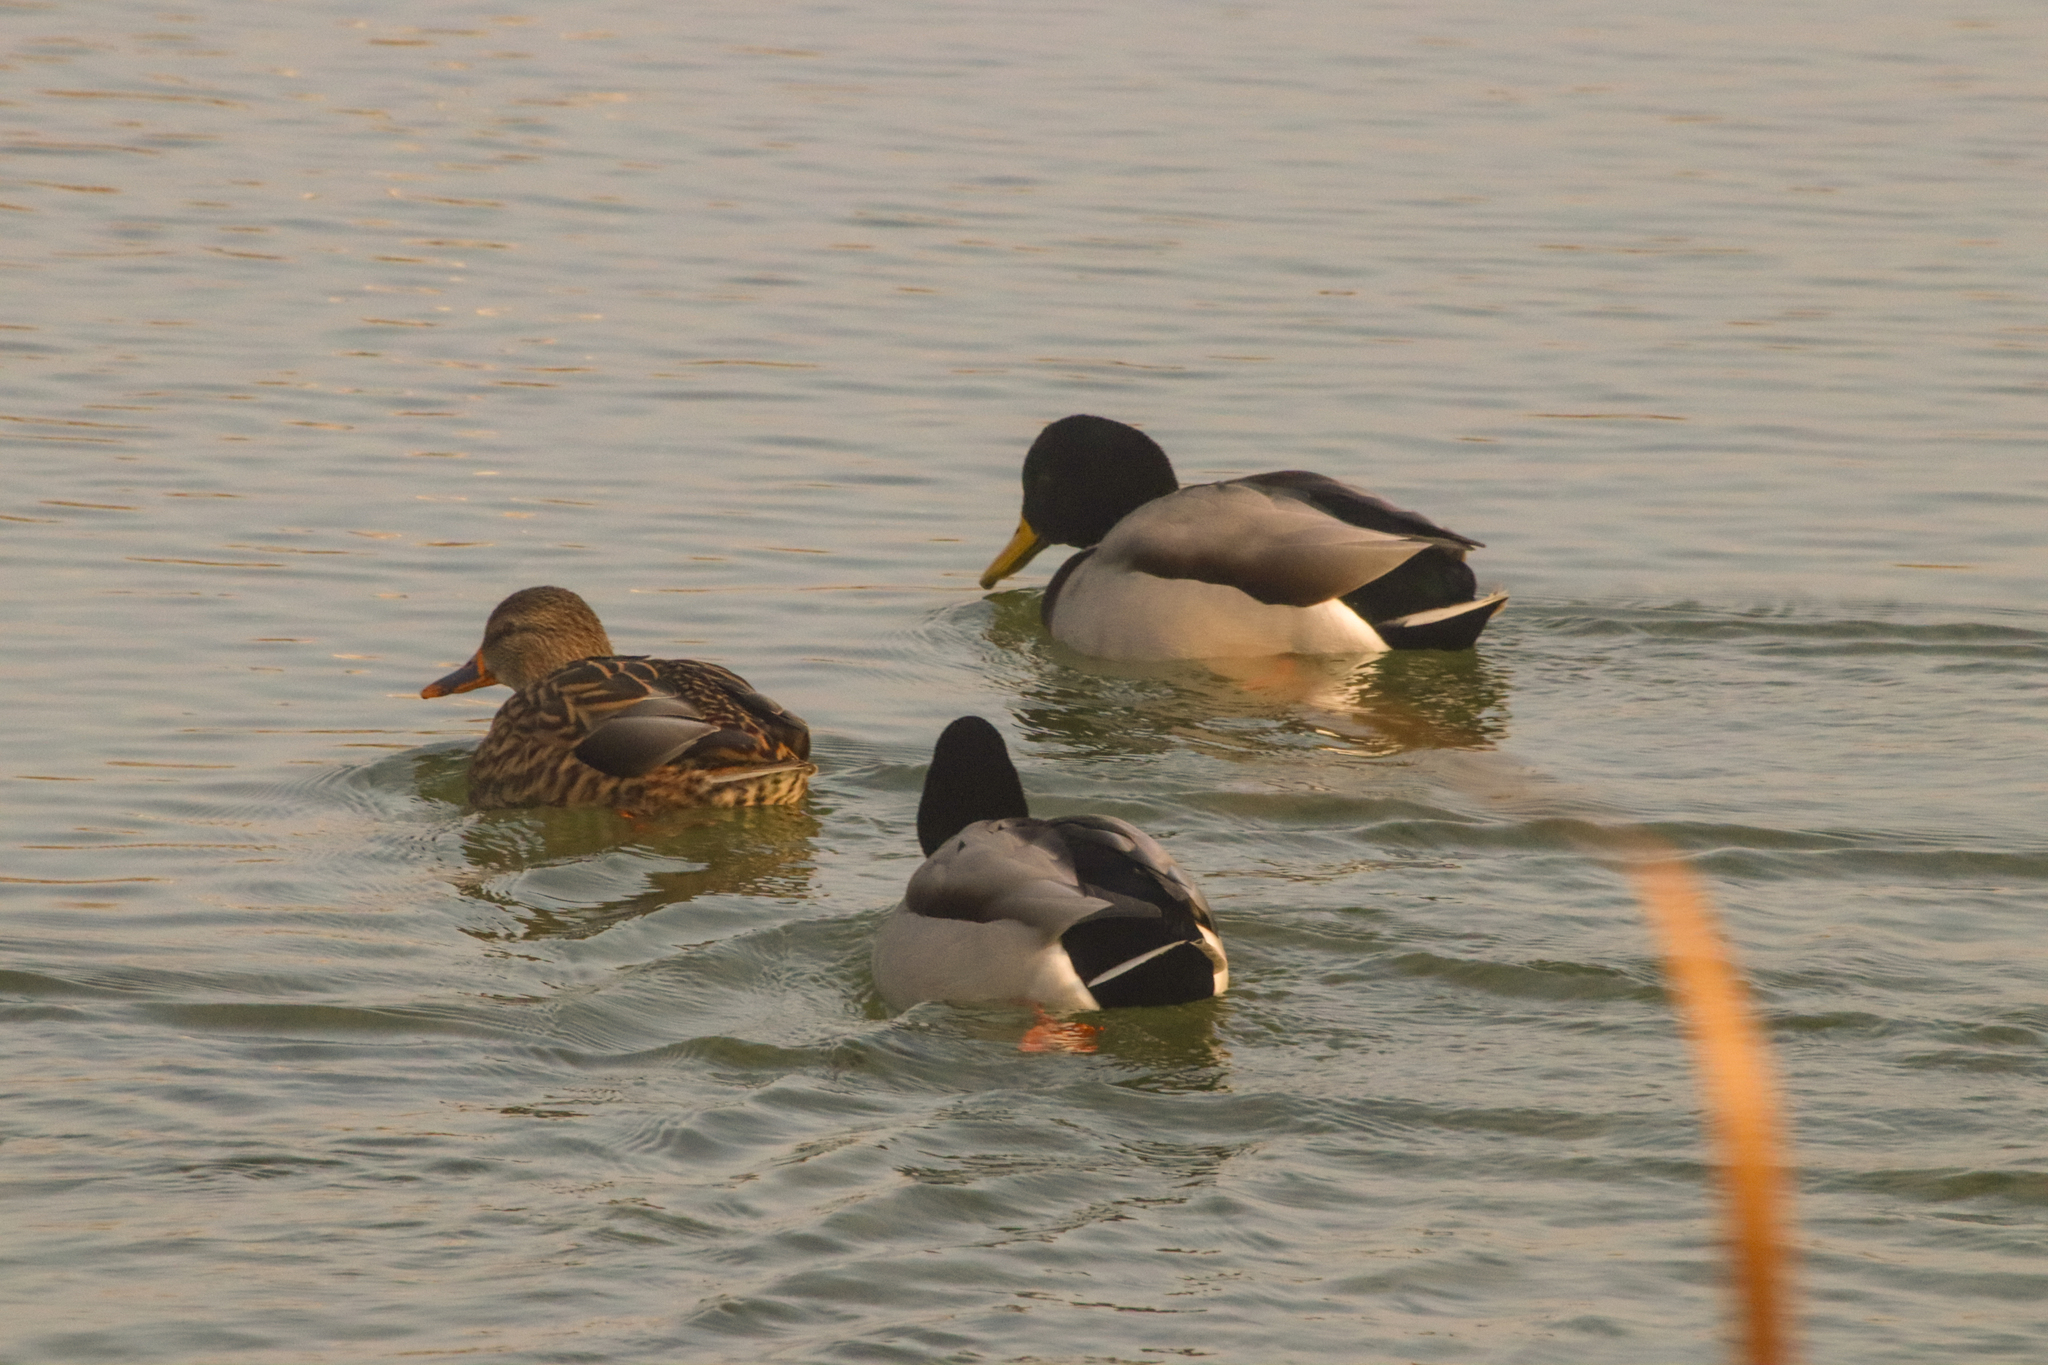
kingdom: Animalia
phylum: Chordata
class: Aves
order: Anseriformes
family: Anatidae
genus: Anas
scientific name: Anas platyrhynchos
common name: Mallard
